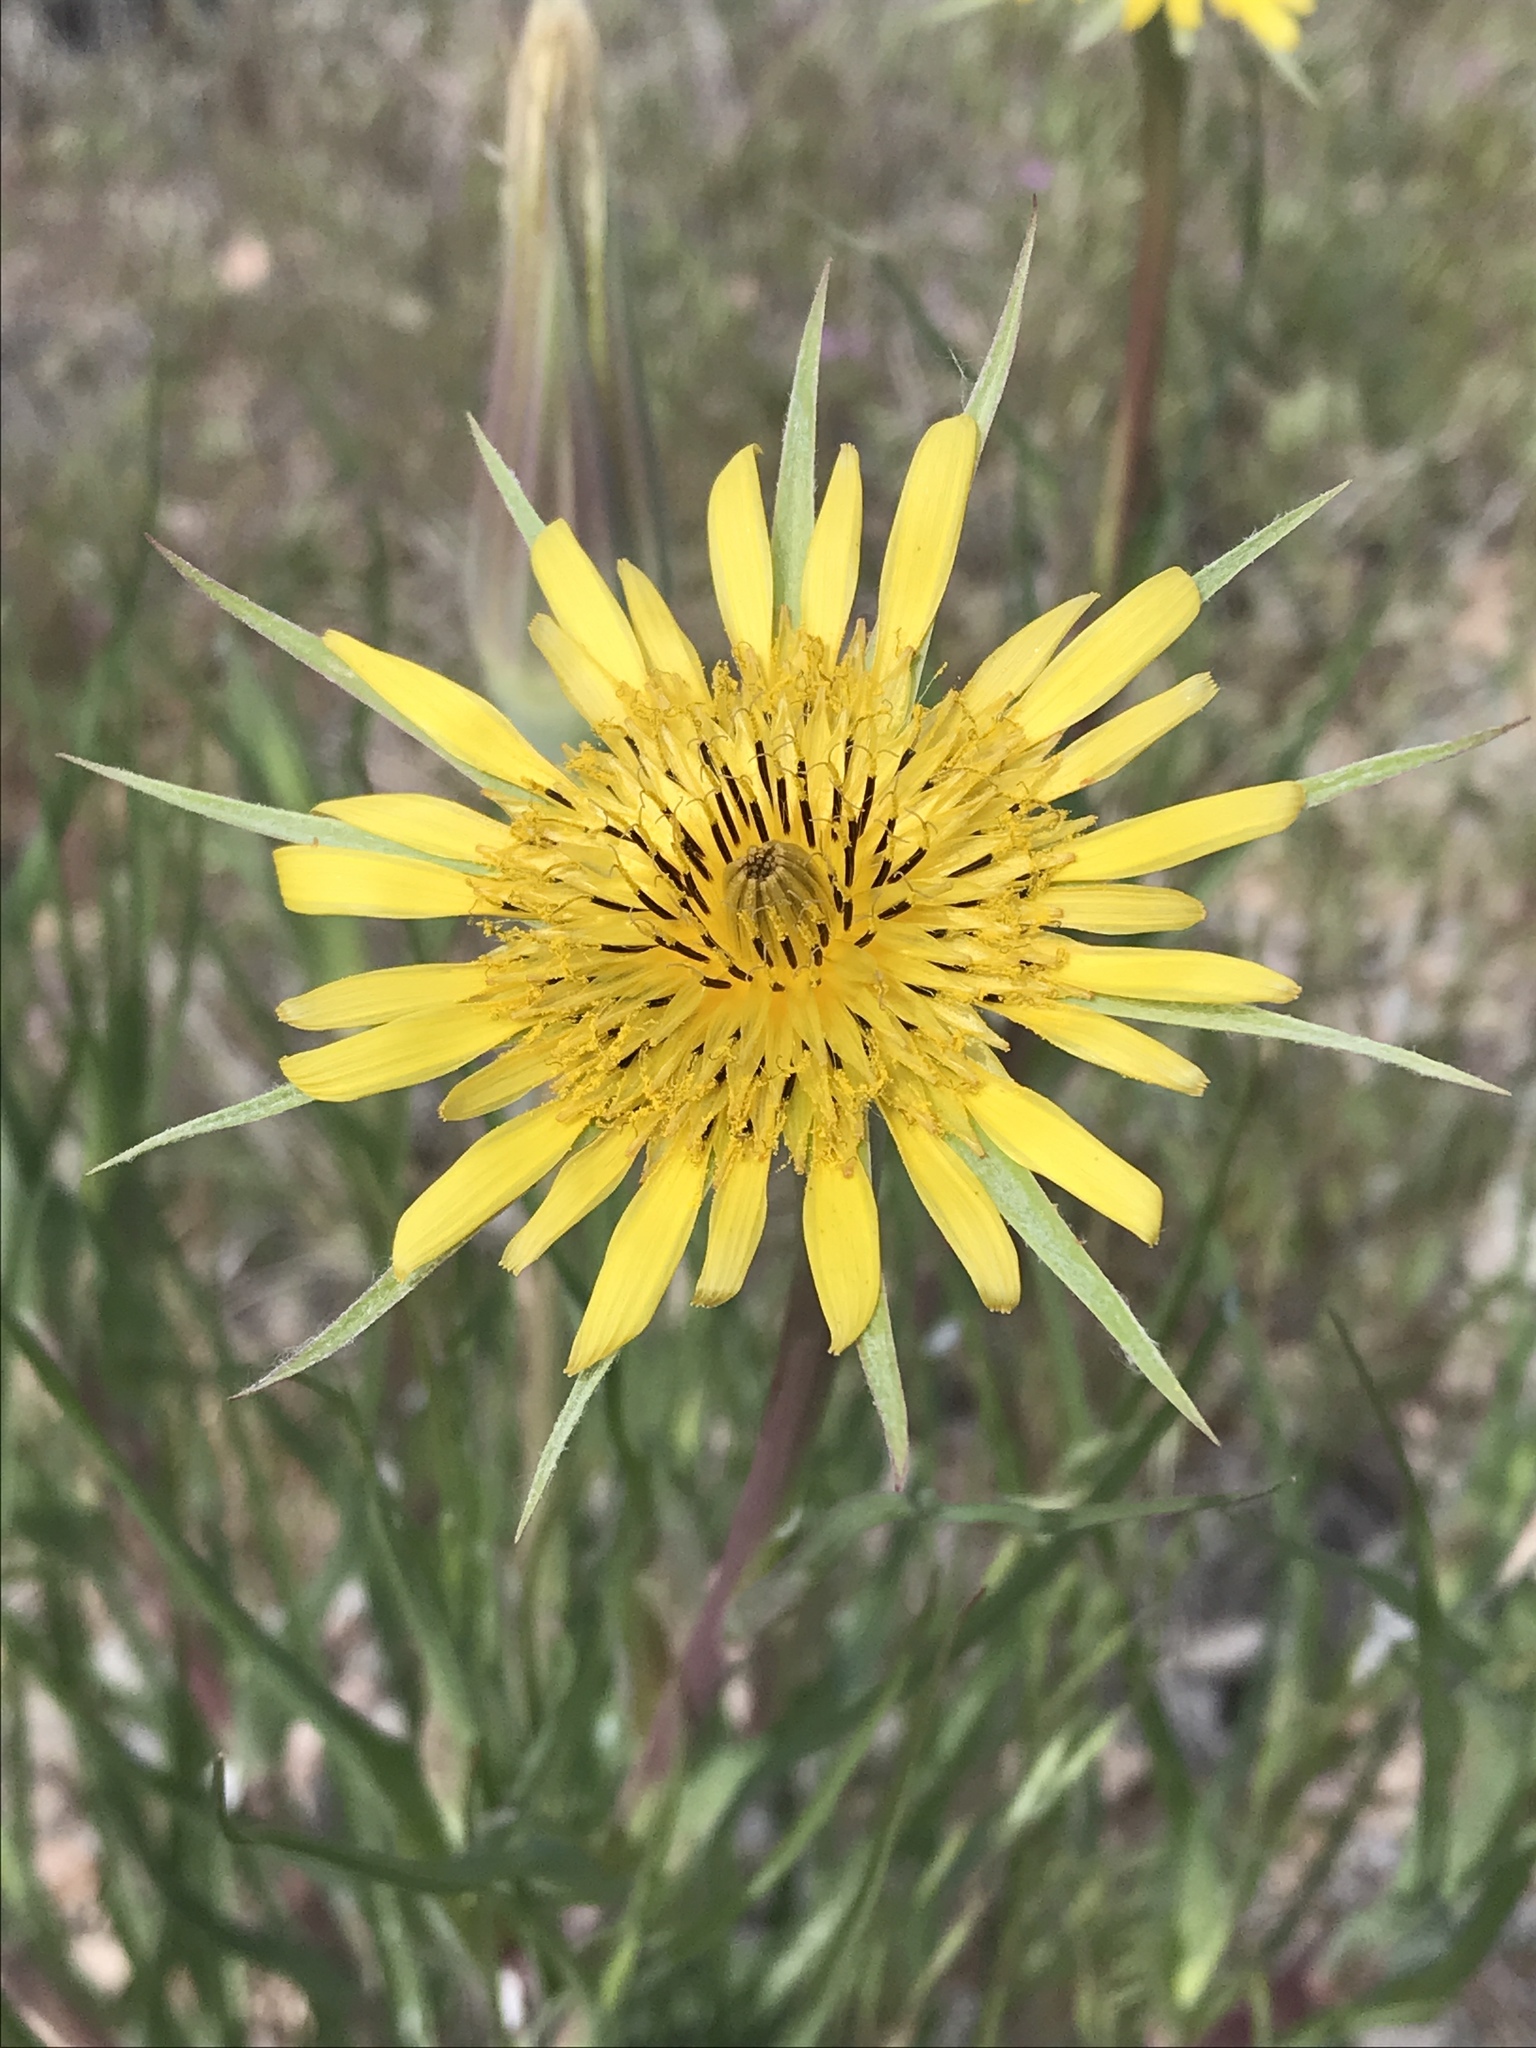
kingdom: Plantae
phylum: Tracheophyta
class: Magnoliopsida
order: Asterales
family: Asteraceae
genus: Tragopogon
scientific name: Tragopogon dubius
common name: Yellow salsify
